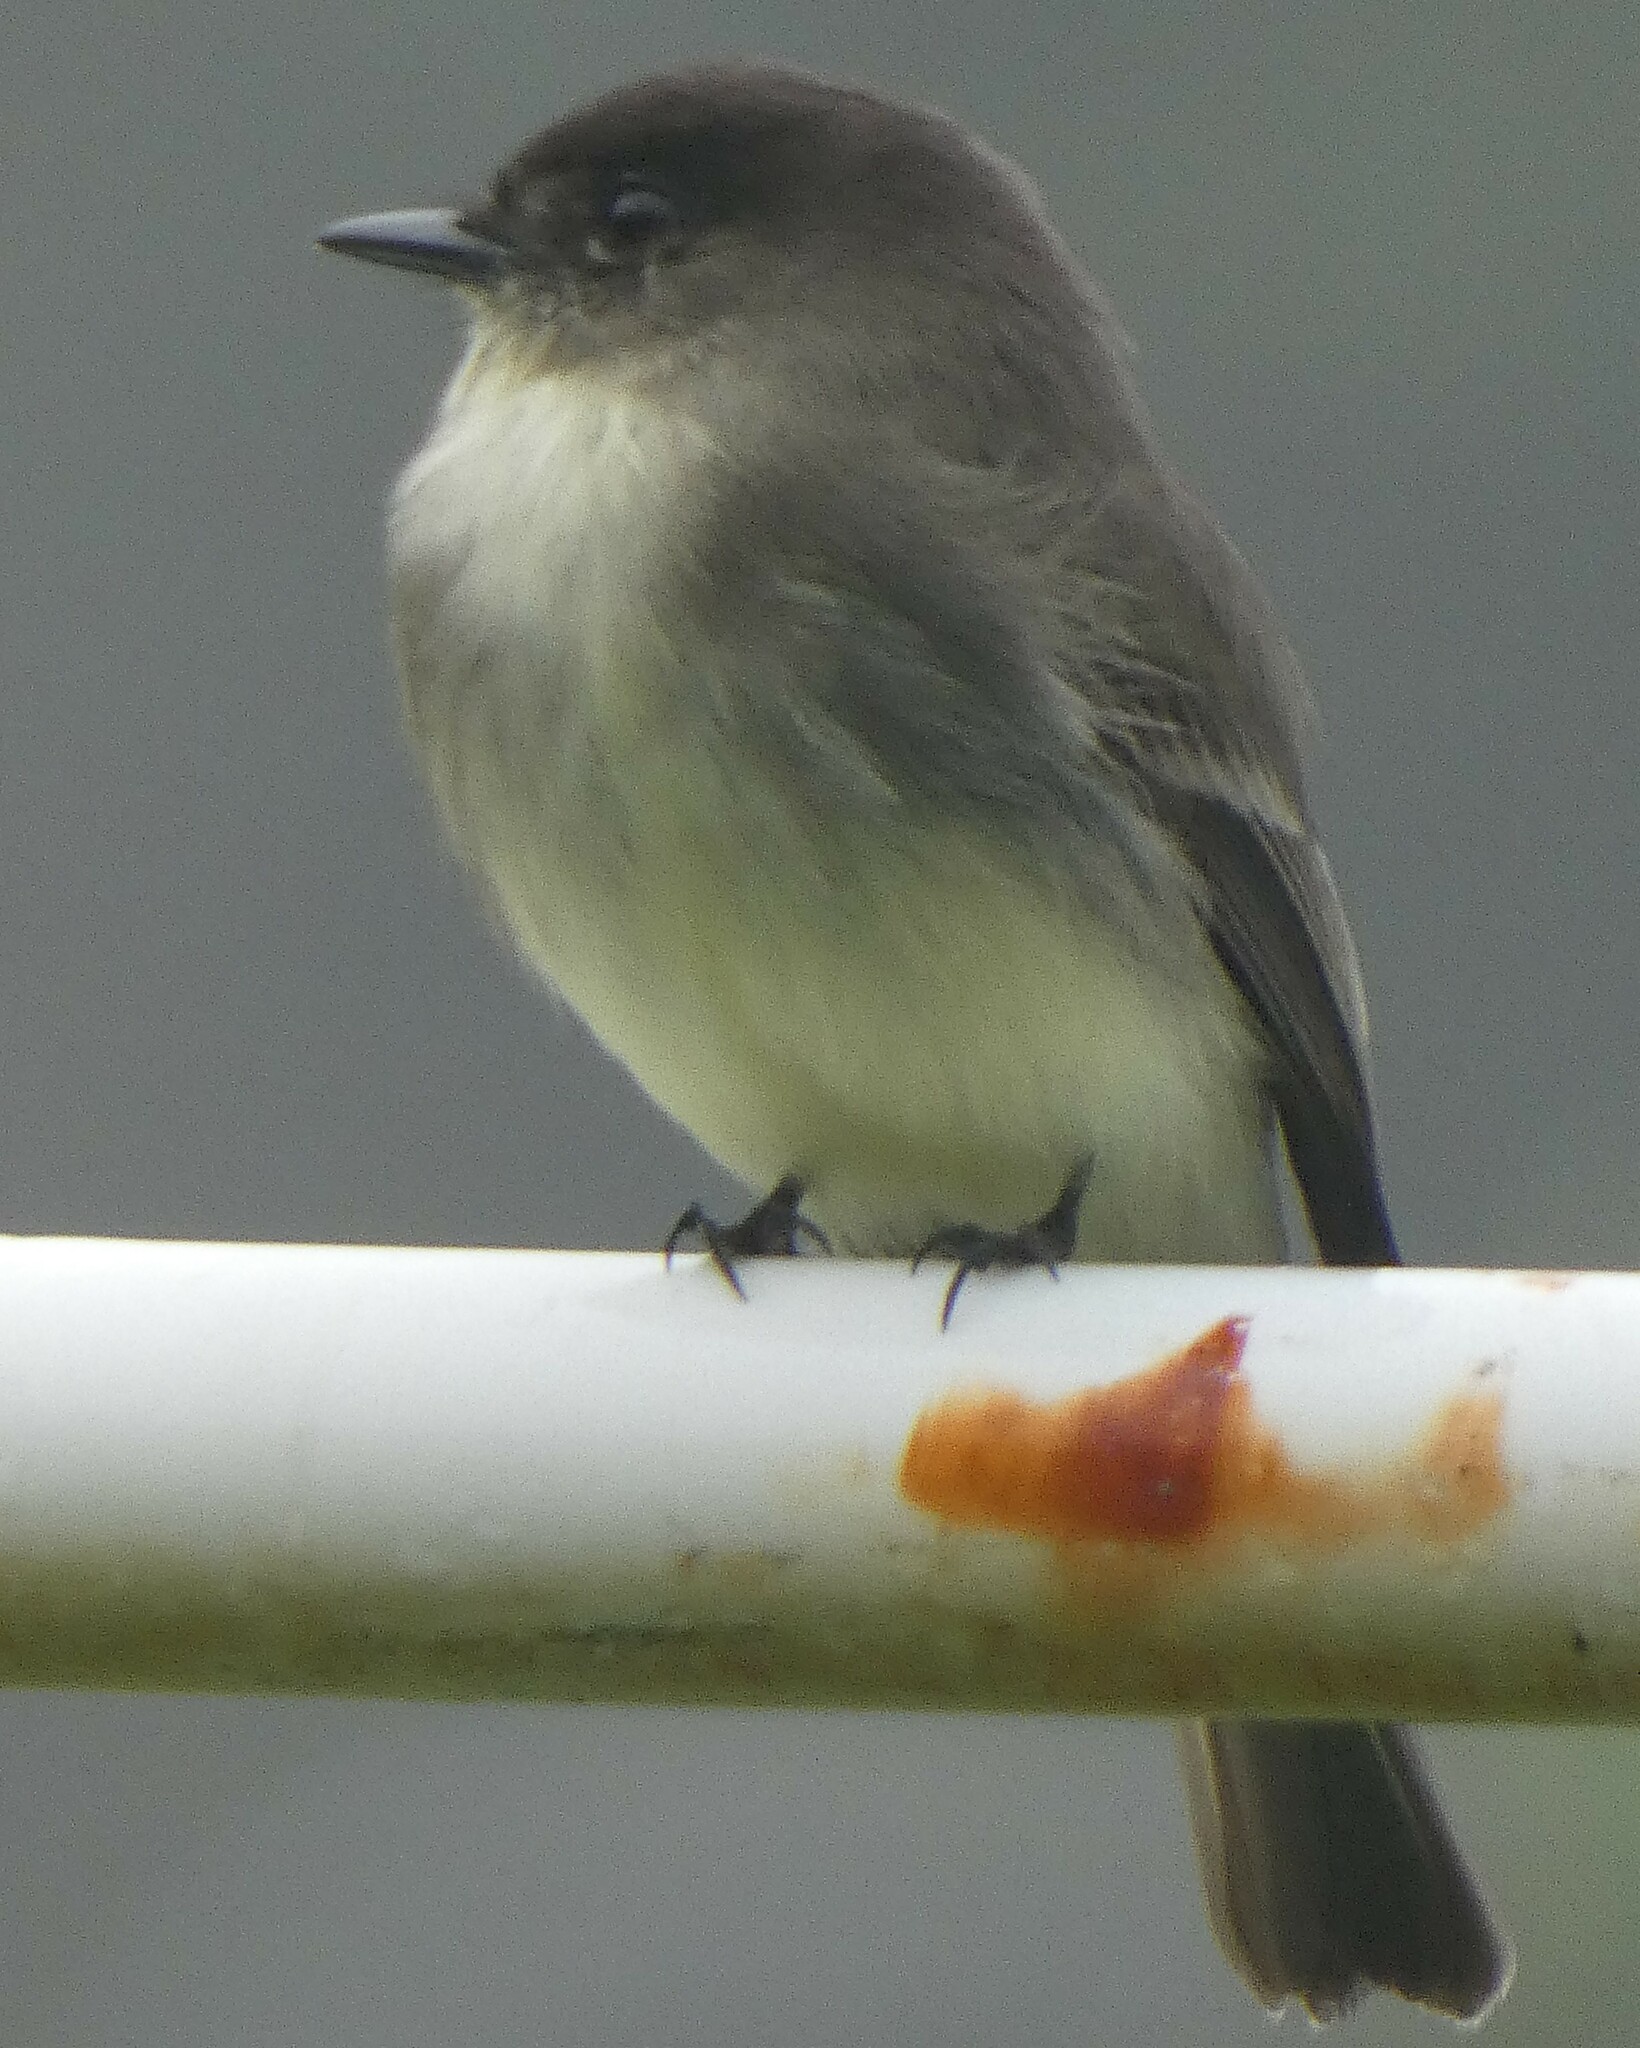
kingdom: Animalia
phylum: Chordata
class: Aves
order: Passeriformes
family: Tyrannidae
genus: Sayornis
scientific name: Sayornis phoebe
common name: Eastern phoebe
